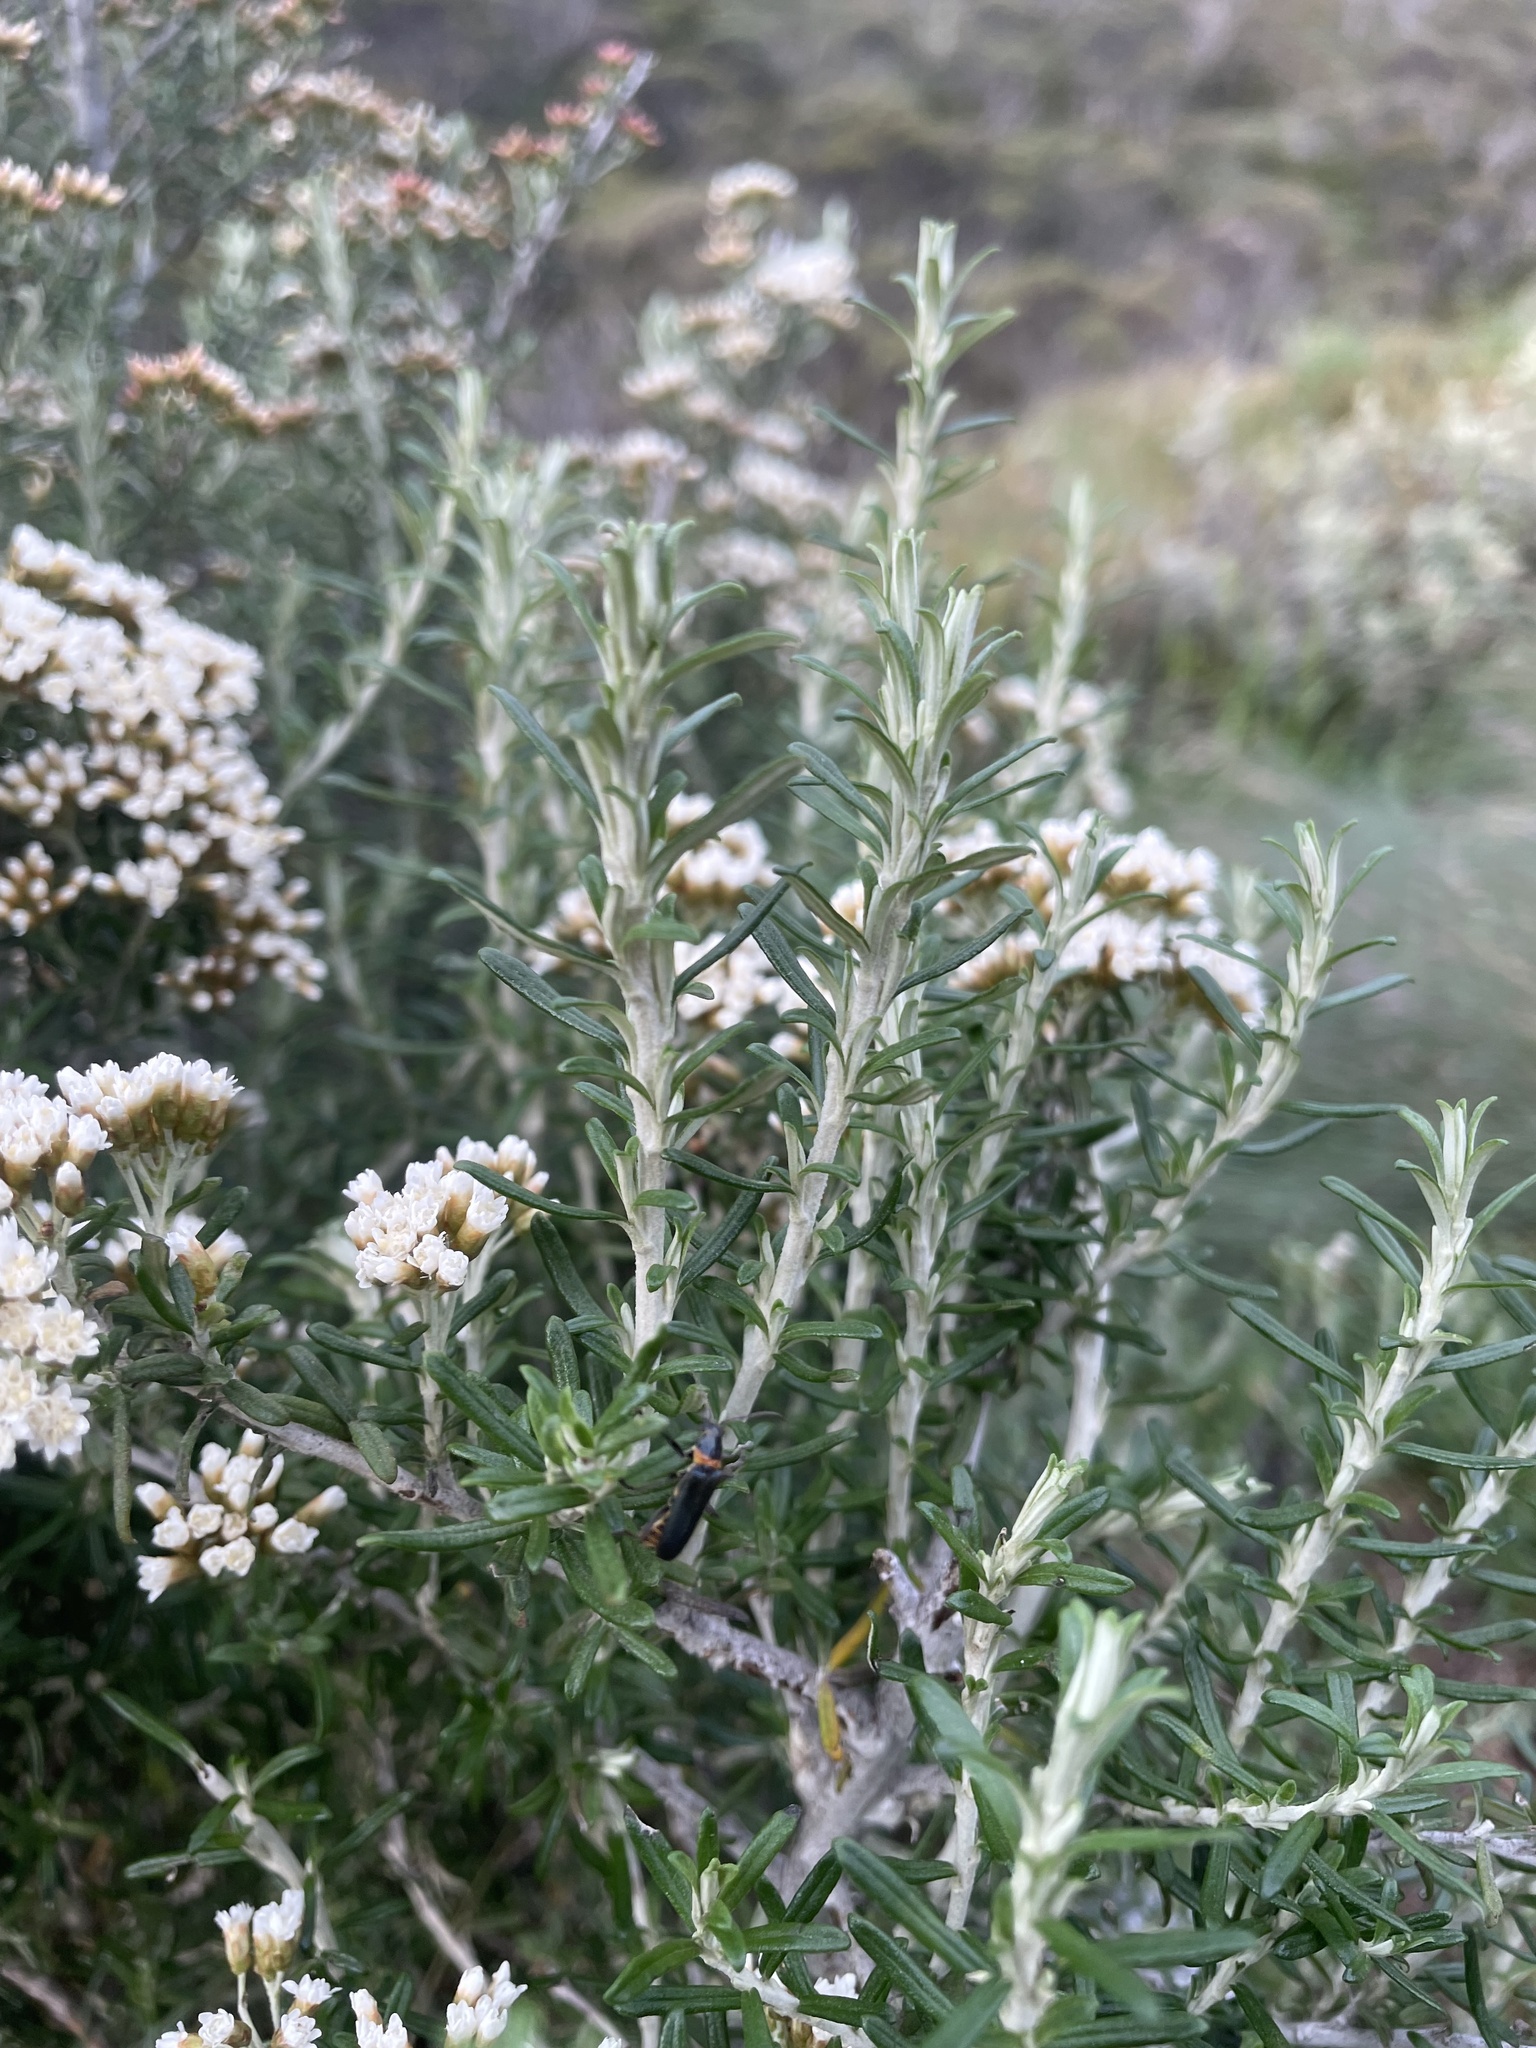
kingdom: Plantae
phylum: Tracheophyta
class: Magnoliopsida
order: Asterales
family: Asteraceae
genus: Ozothamnus
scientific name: Ozothamnus secundiflorus
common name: Cascade everlasting
